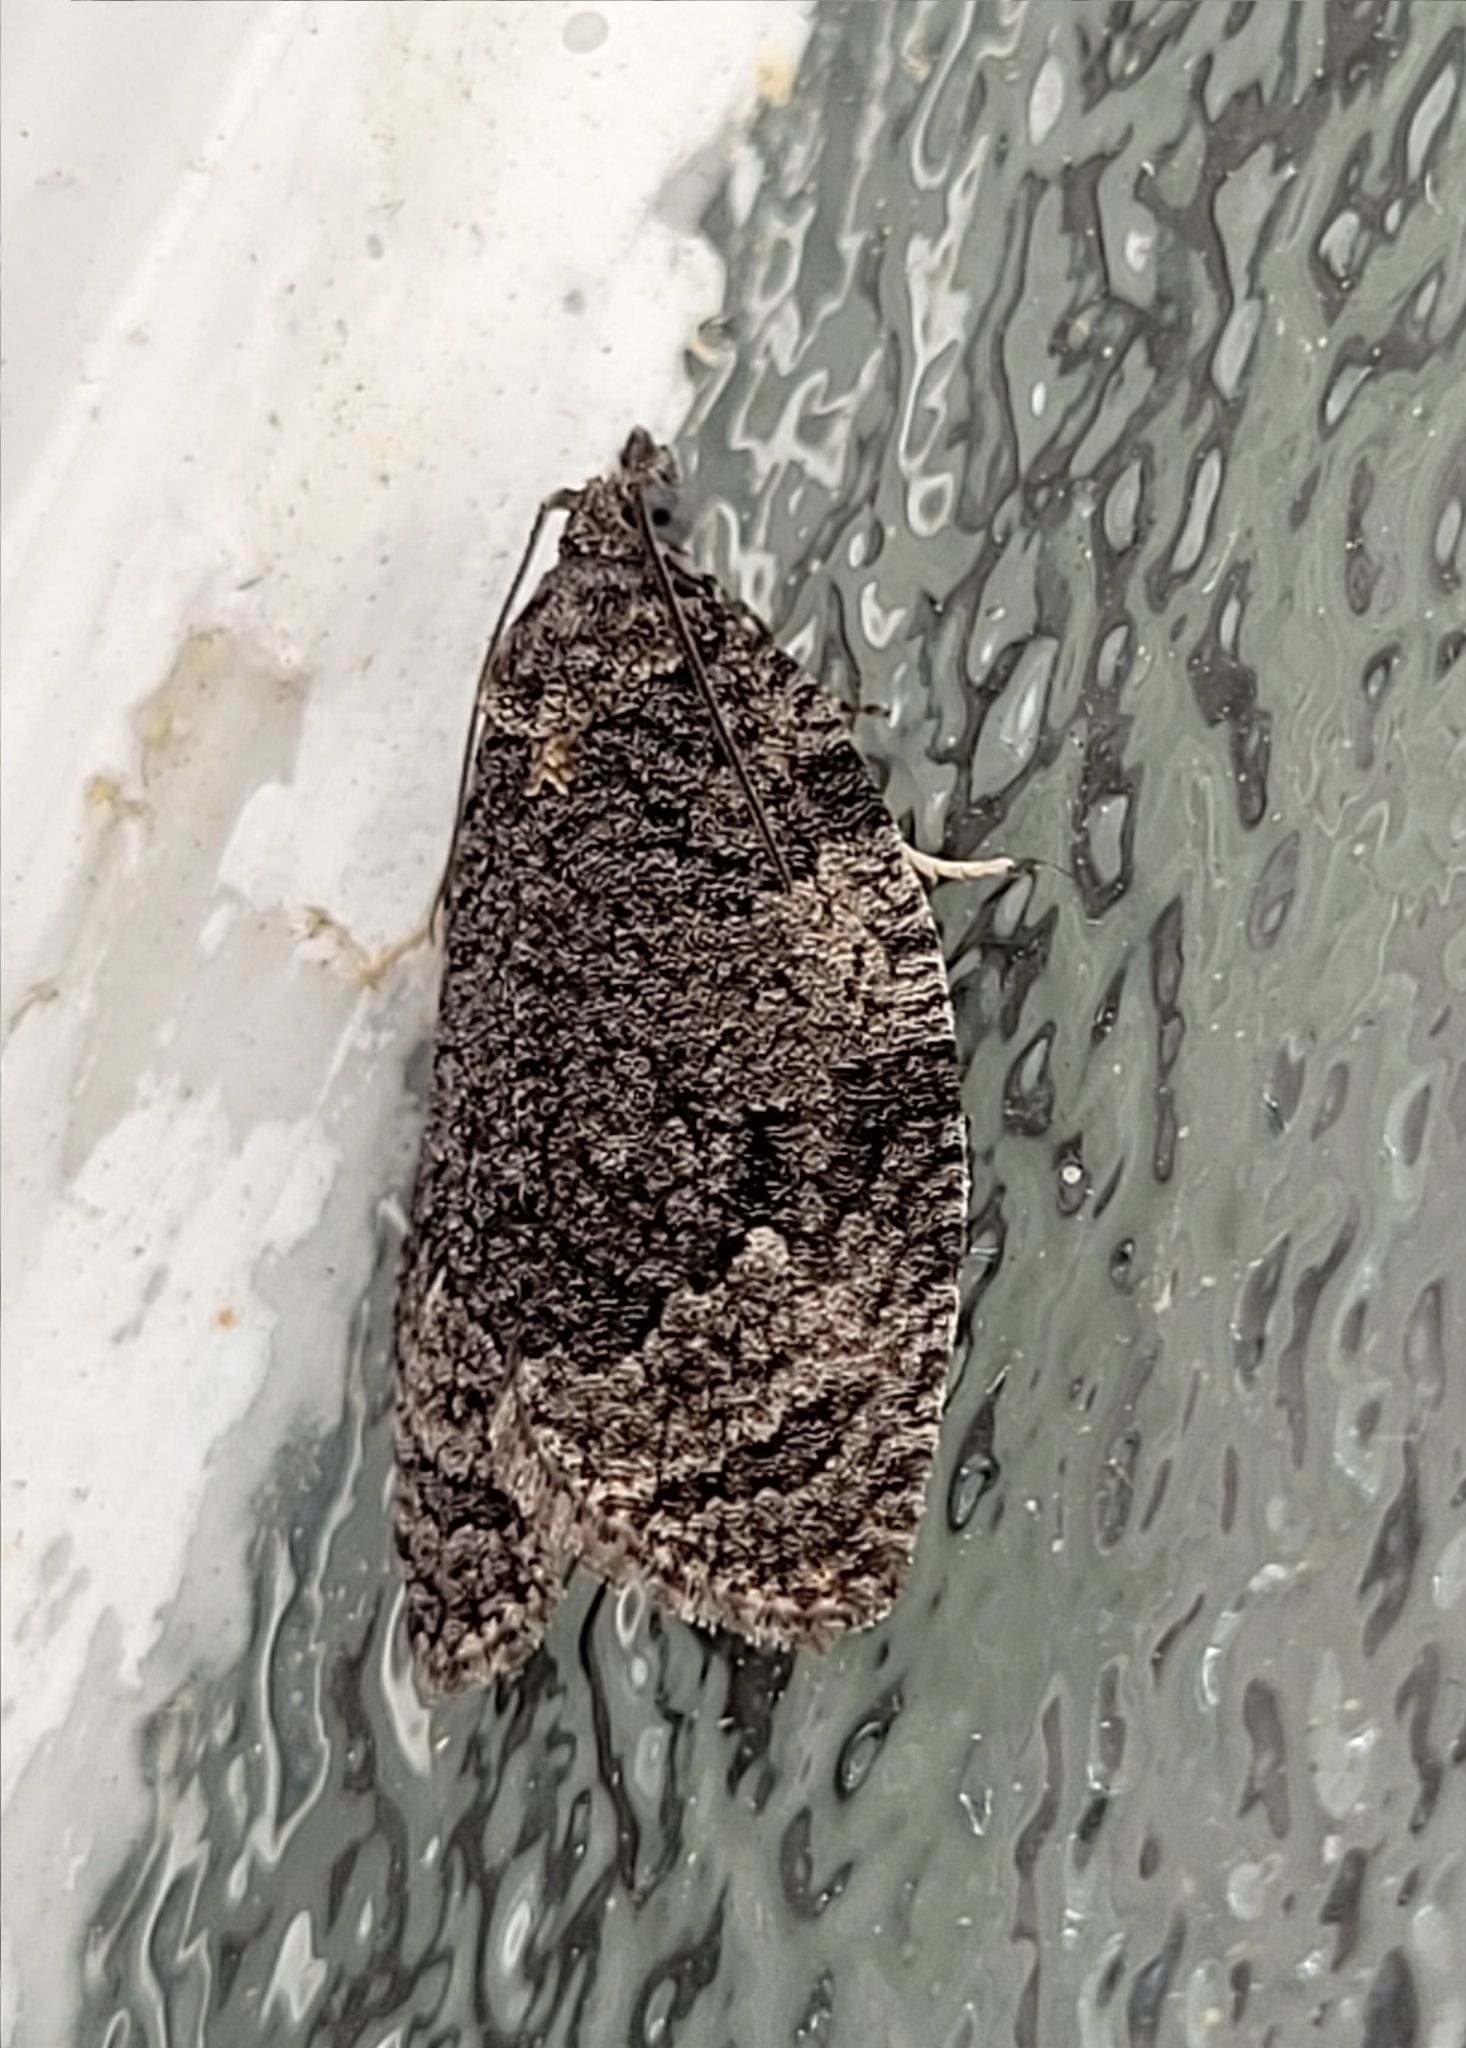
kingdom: Animalia
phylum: Arthropoda
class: Insecta
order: Lepidoptera
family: Tortricidae
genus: Apotomis
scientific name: Apotomis removana
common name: Green aspen leafroller
